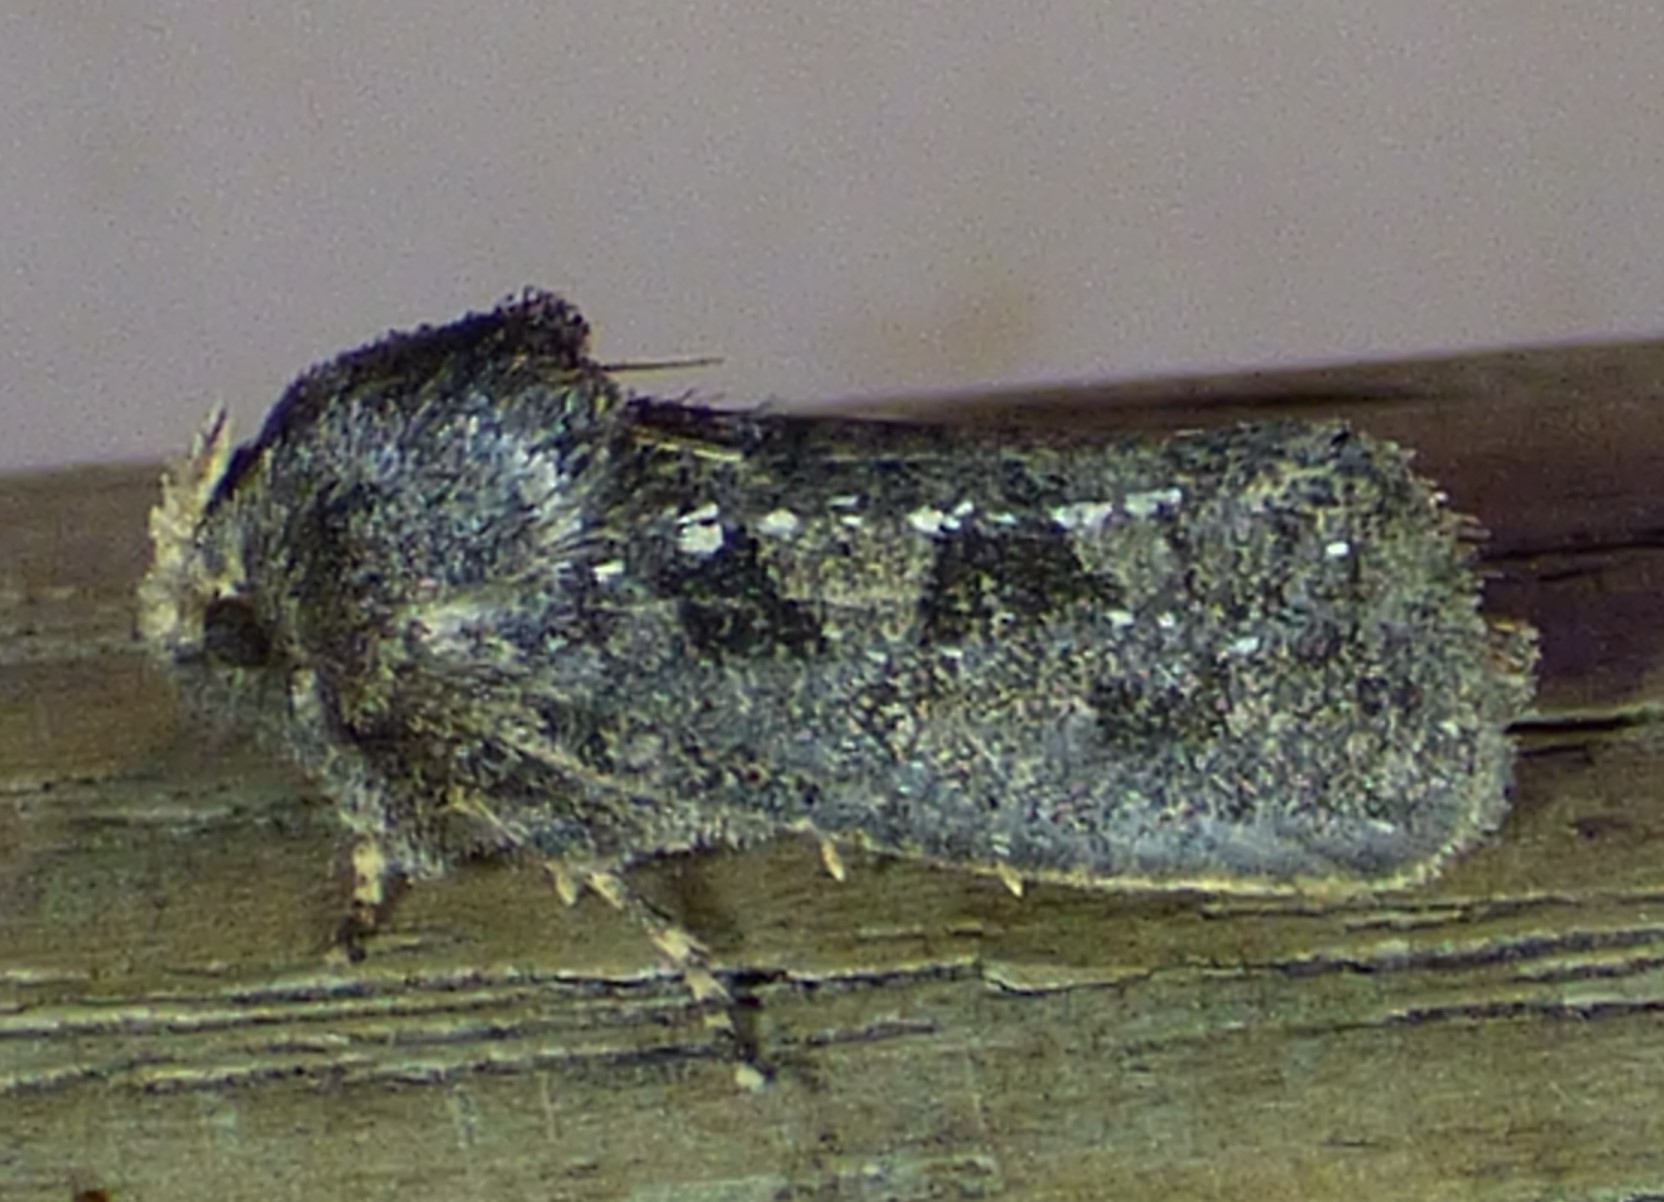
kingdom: Animalia
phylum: Arthropoda
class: Insecta
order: Lepidoptera
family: Tineidae
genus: Acrolophus
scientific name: Acrolophus arcanella
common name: Arcane grass tubeworm moth
